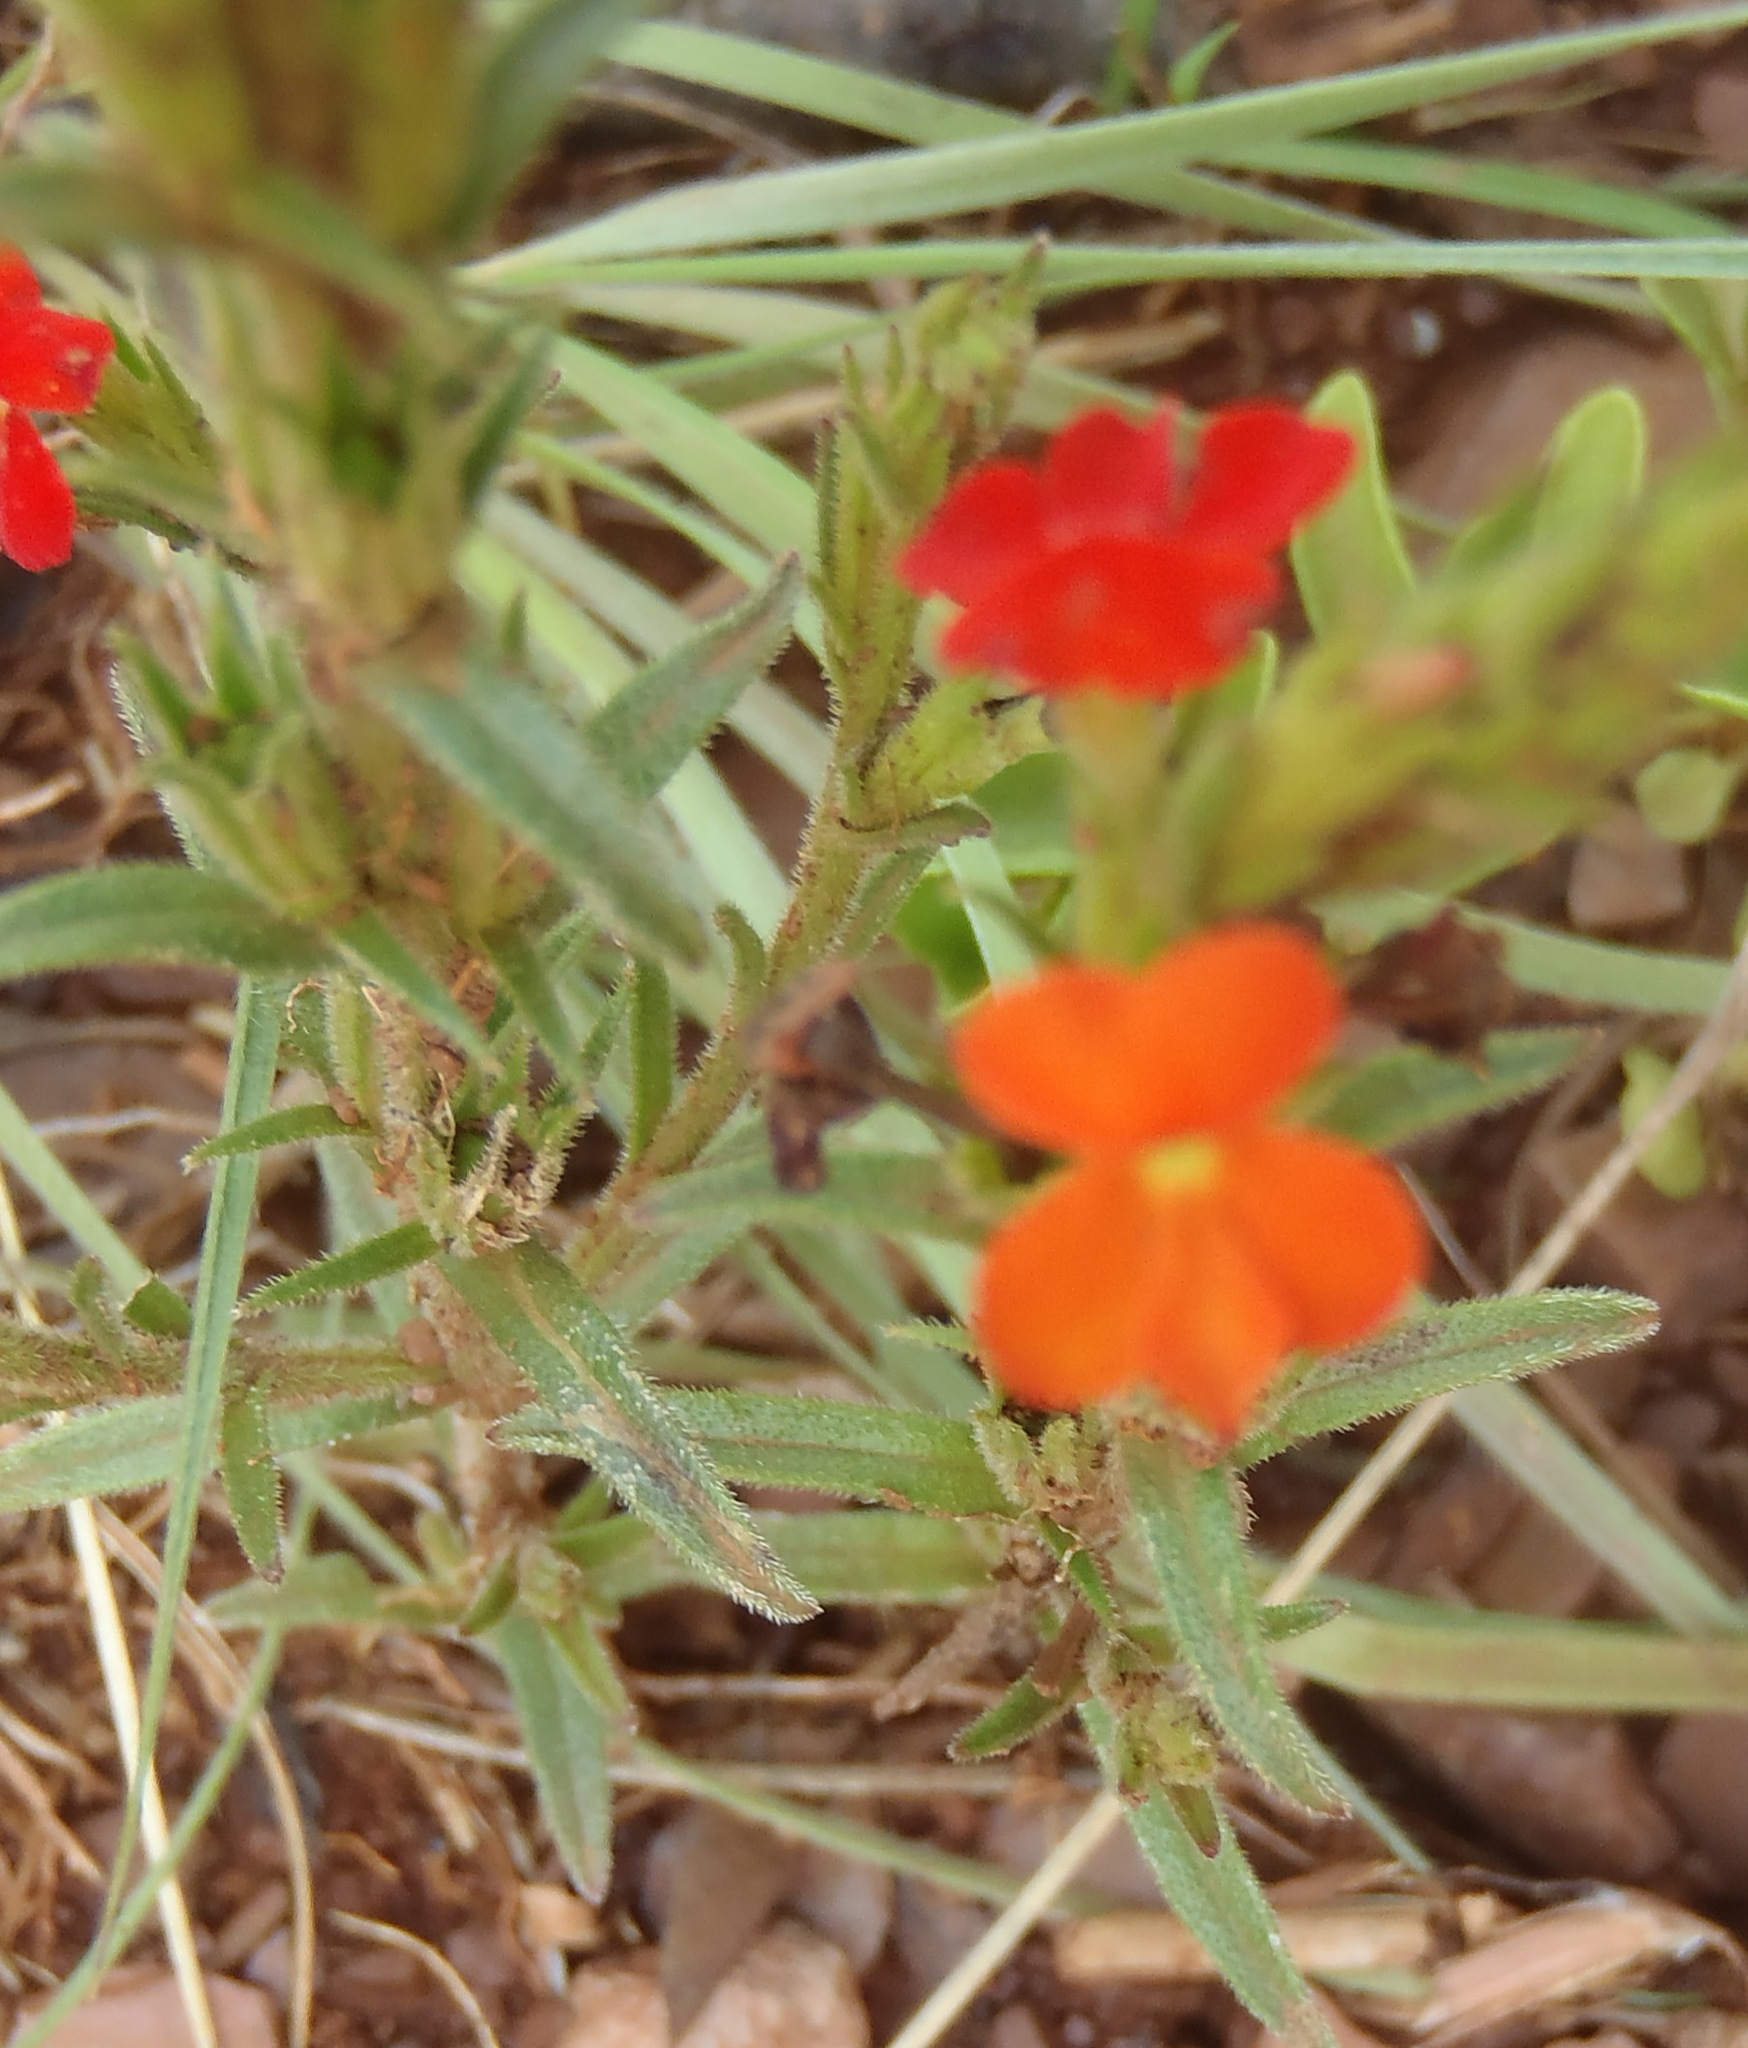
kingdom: Plantae
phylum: Tracheophyta
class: Magnoliopsida
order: Lamiales
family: Orobanchaceae
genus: Striga
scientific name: Striga elegans
